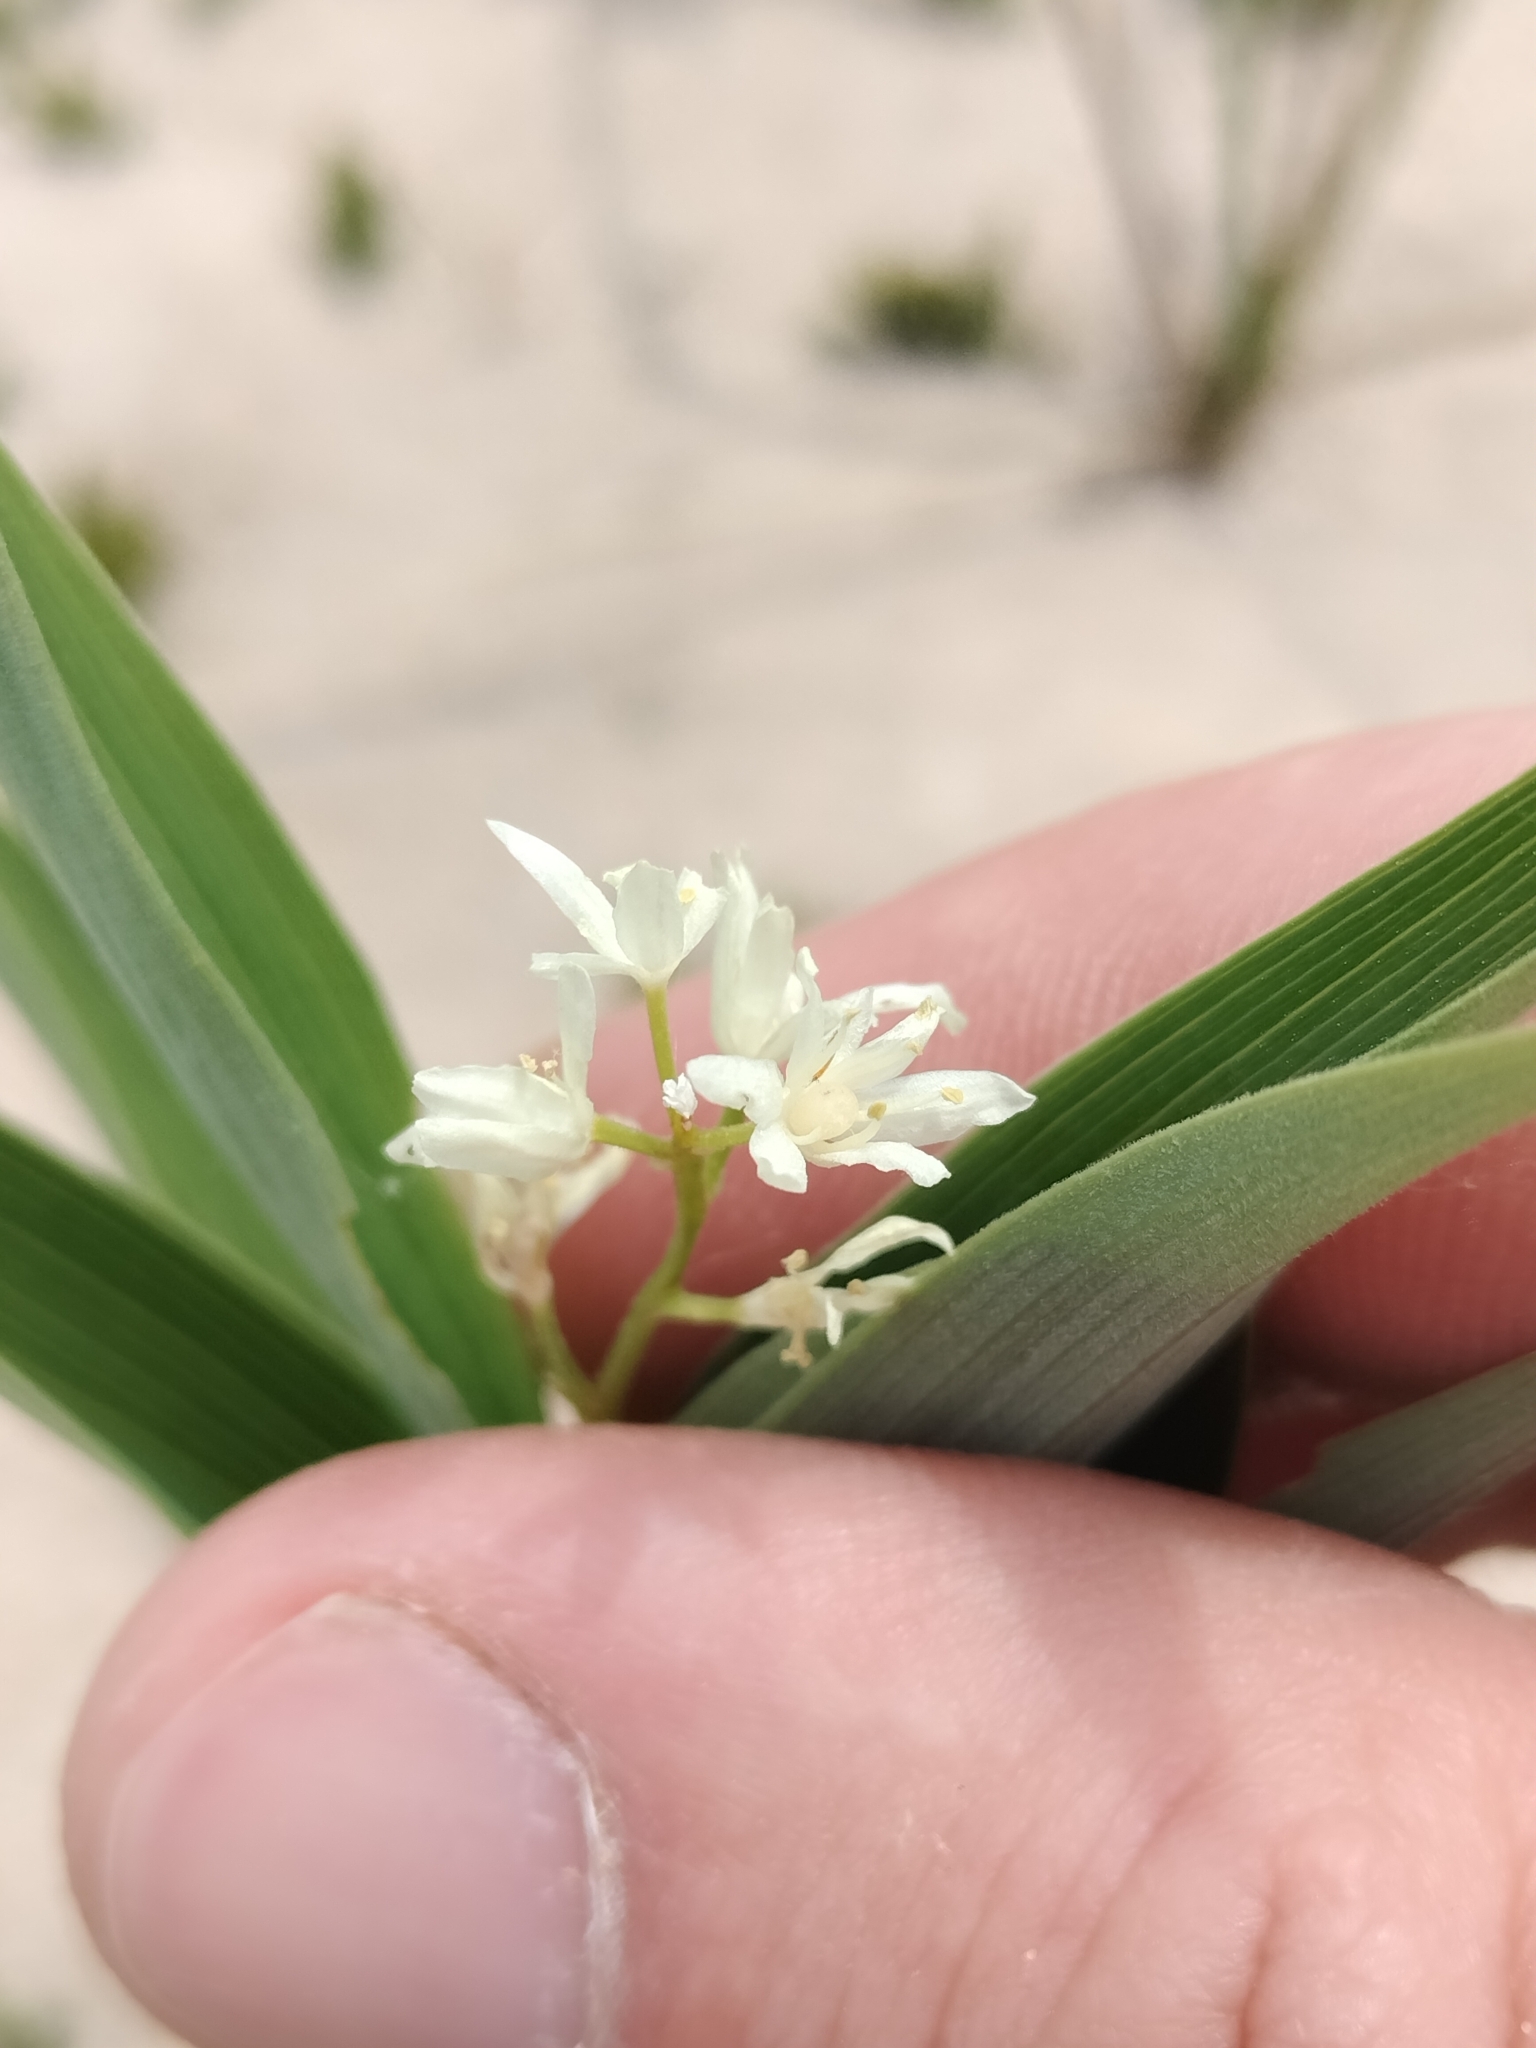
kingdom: Plantae
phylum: Tracheophyta
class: Liliopsida
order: Asparagales
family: Asparagaceae
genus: Maianthemum
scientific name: Maianthemum stellatum
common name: Little false solomon's seal
